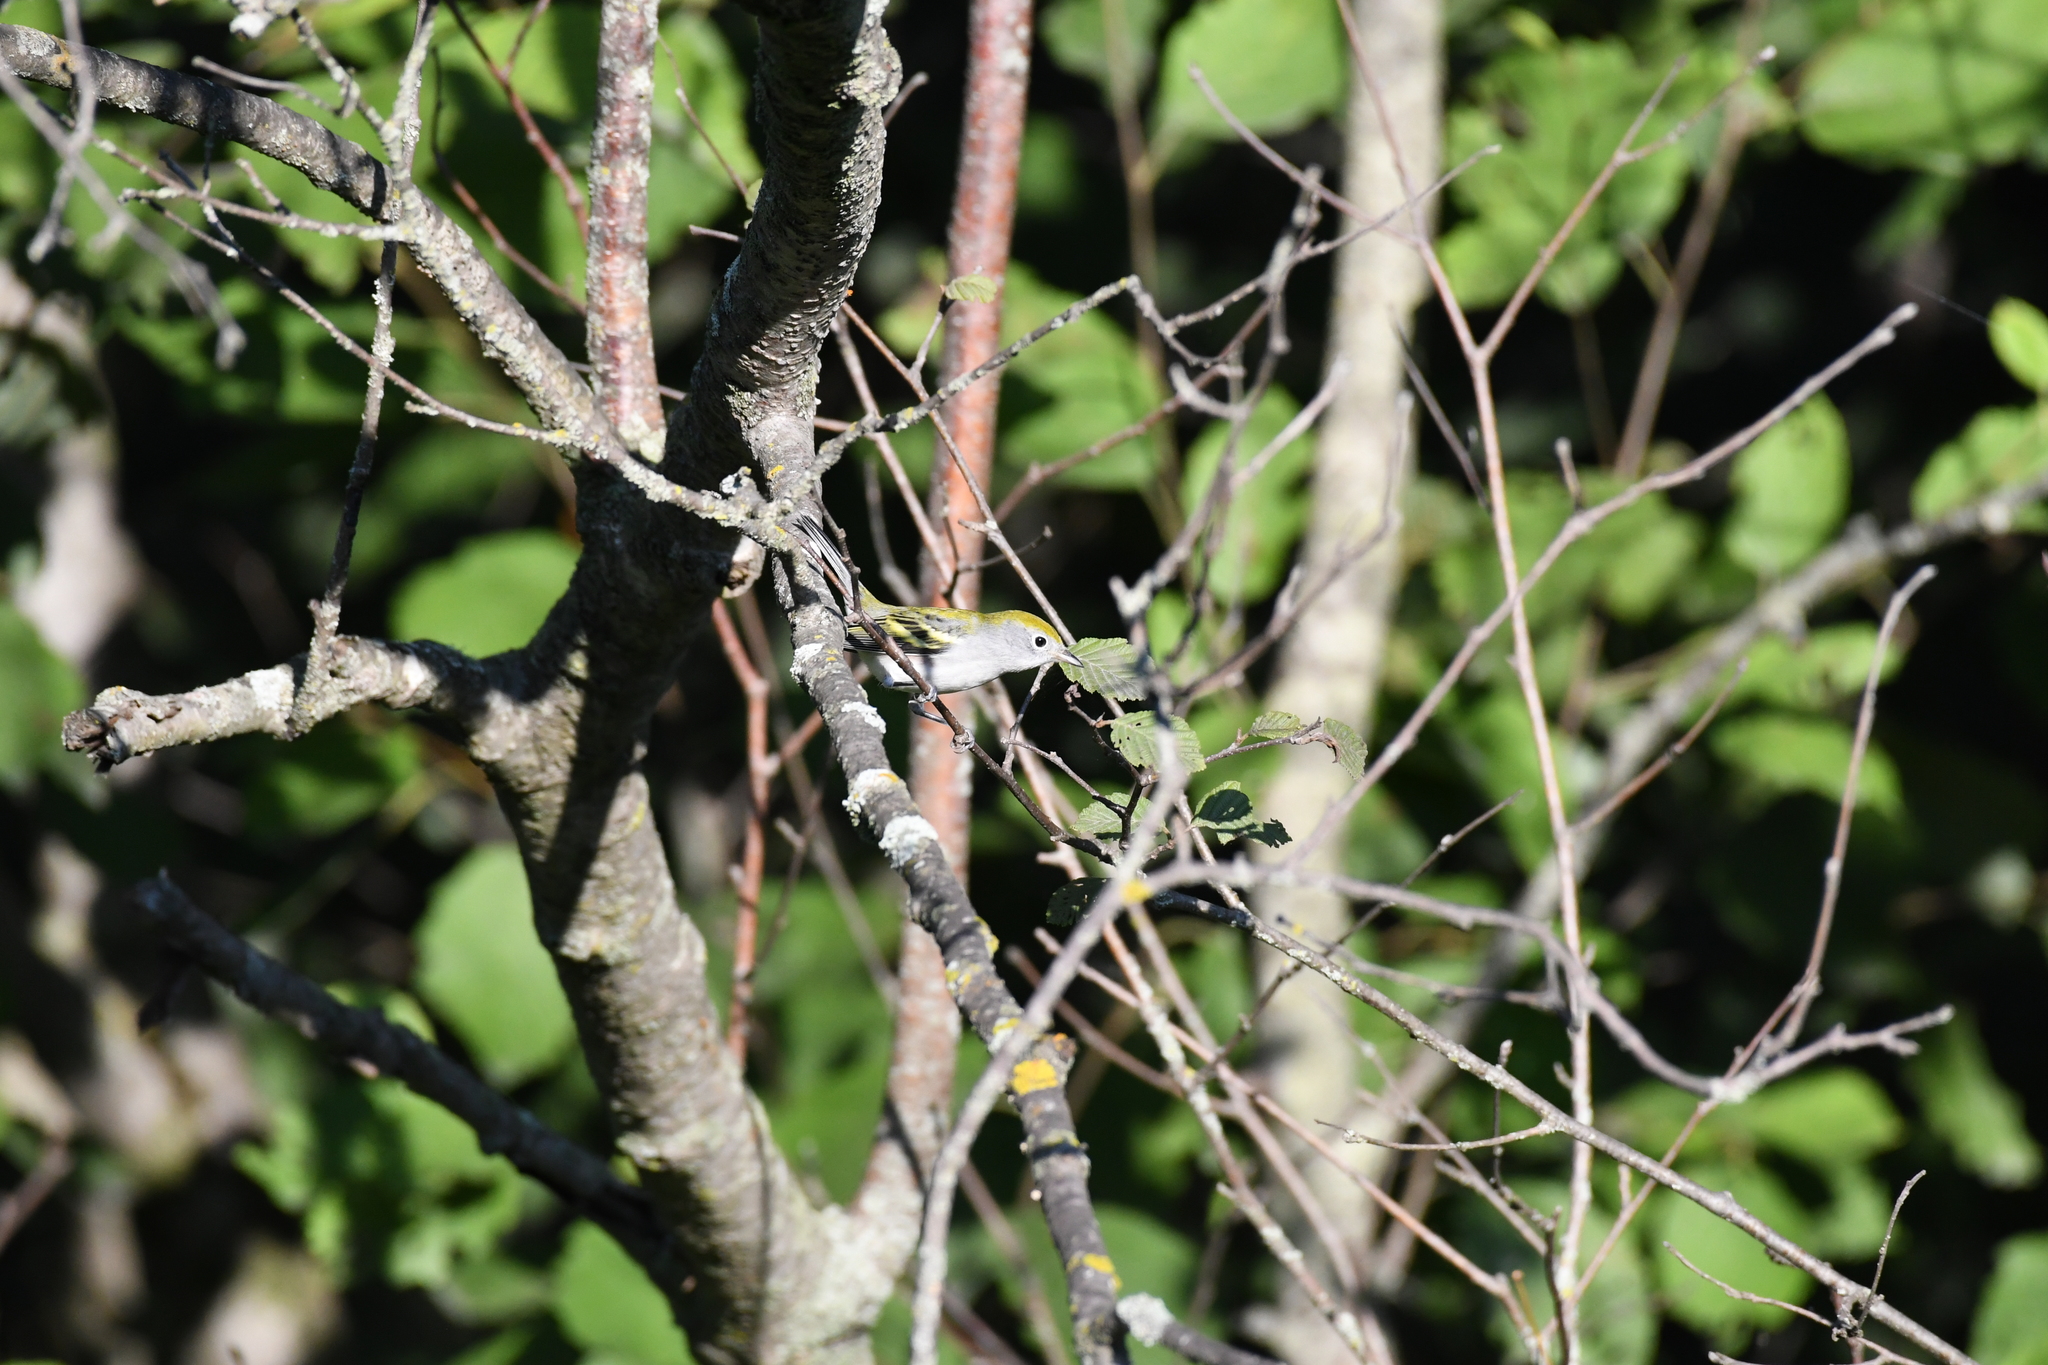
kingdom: Animalia
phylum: Chordata
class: Aves
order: Passeriformes
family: Parulidae
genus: Setophaga
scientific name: Setophaga pensylvanica
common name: Chestnut-sided warbler
